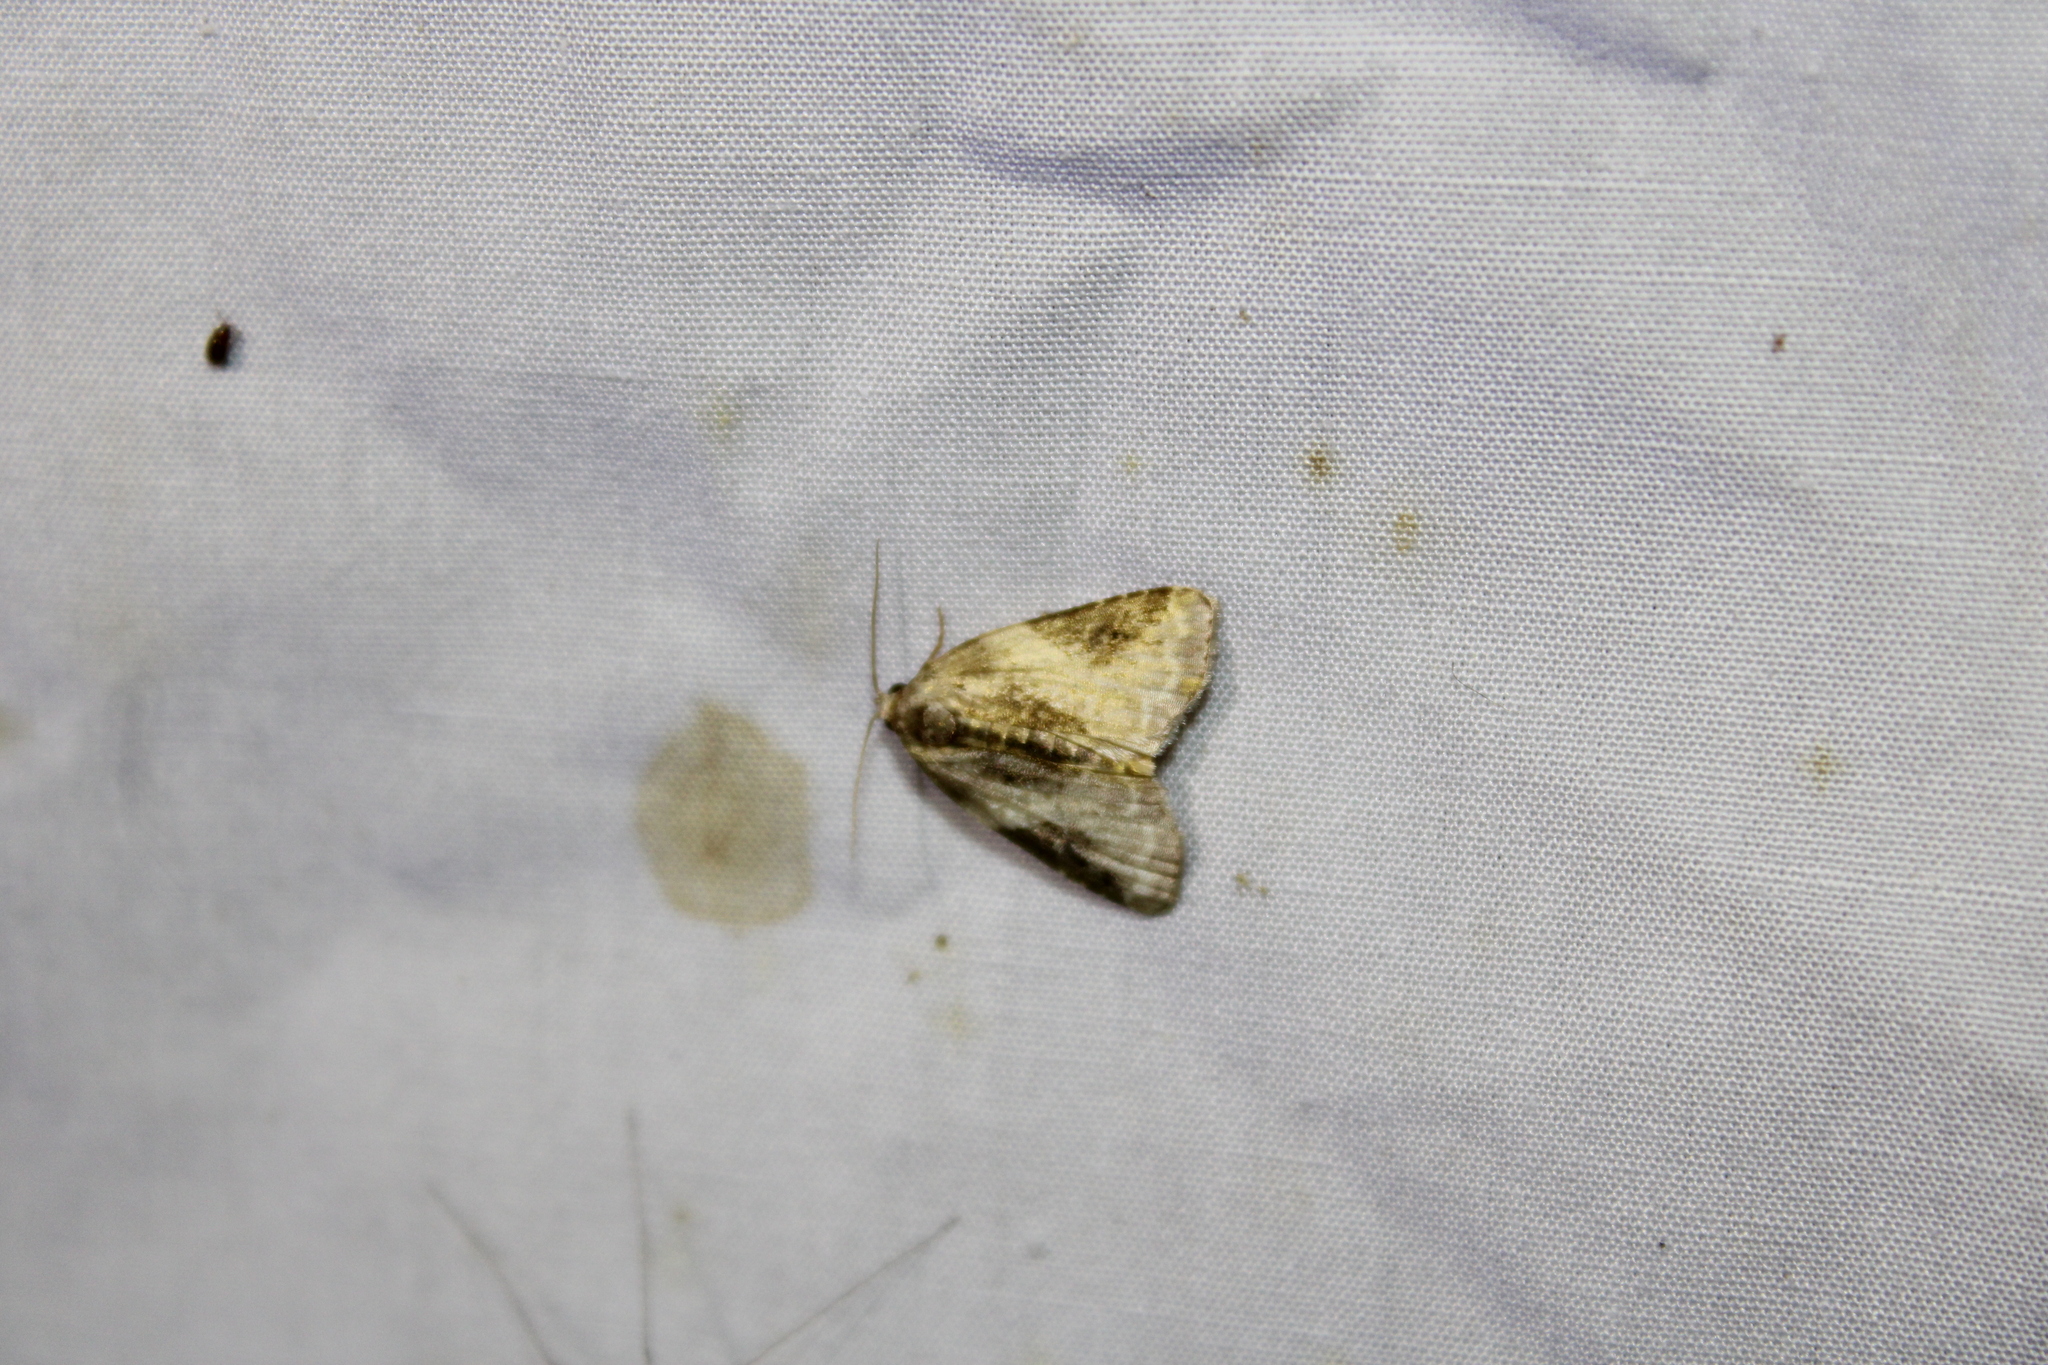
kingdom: Animalia
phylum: Arthropoda
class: Insecta
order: Lepidoptera
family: Noctuidae
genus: Pseudeustrotia
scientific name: Pseudeustrotia carneola
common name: Pink-barred lithacodia moth
